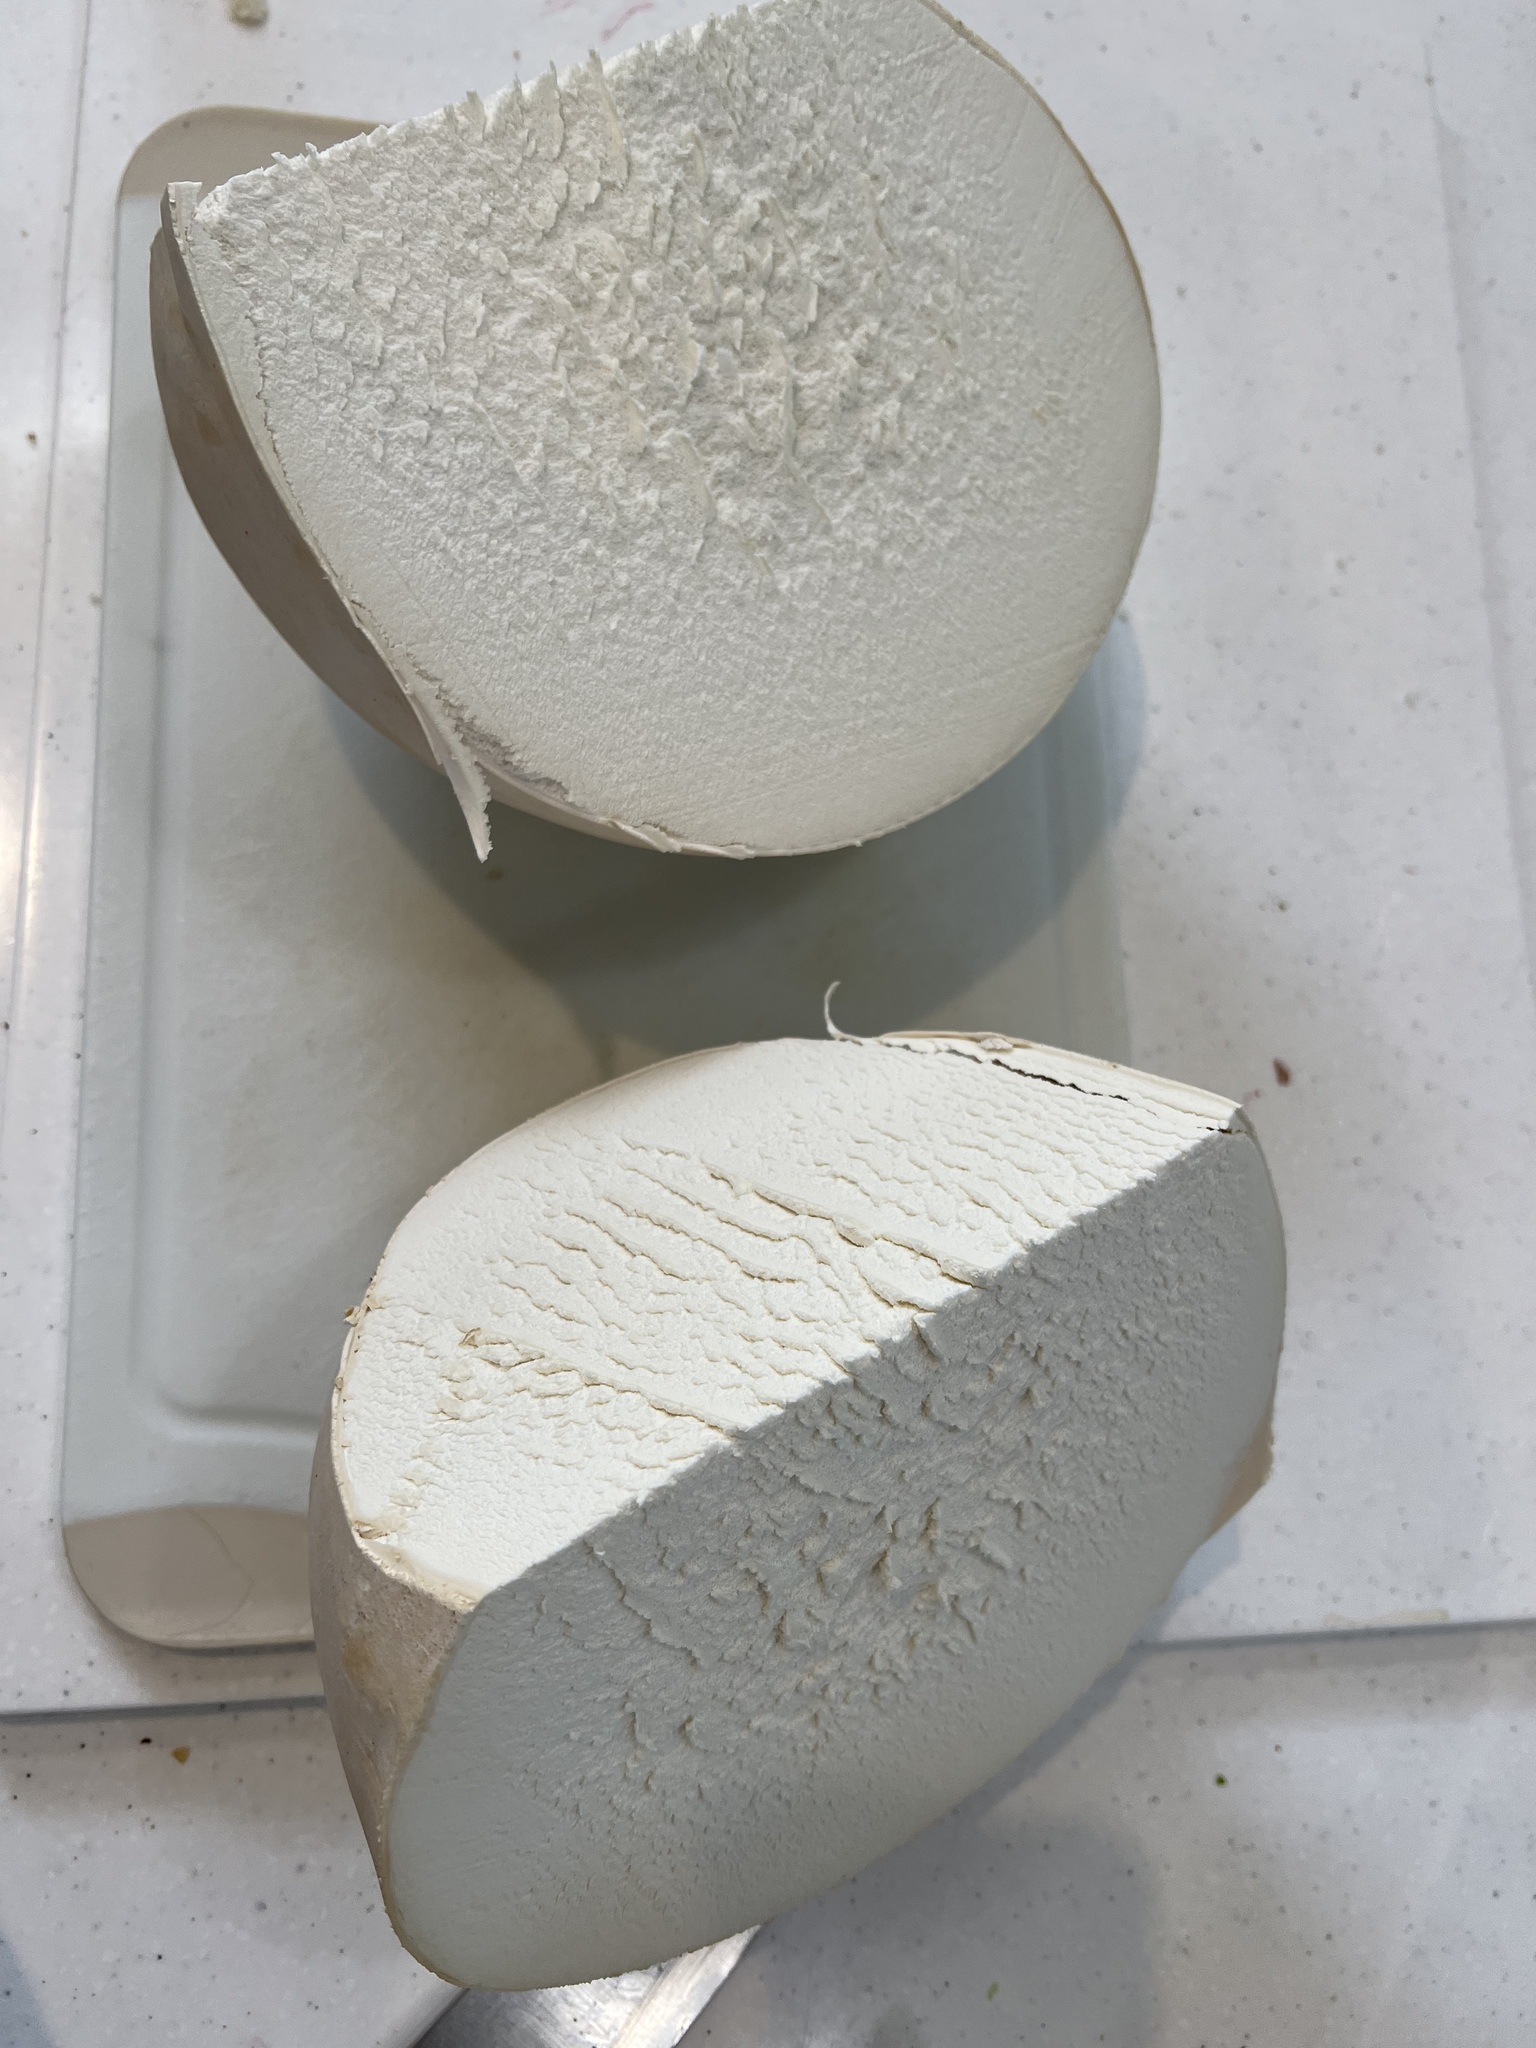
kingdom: Fungi
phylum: Basidiomycota
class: Agaricomycetes
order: Agaricales
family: Lycoperdaceae
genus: Calvatia
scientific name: Calvatia gigantea
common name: Giant puffball
